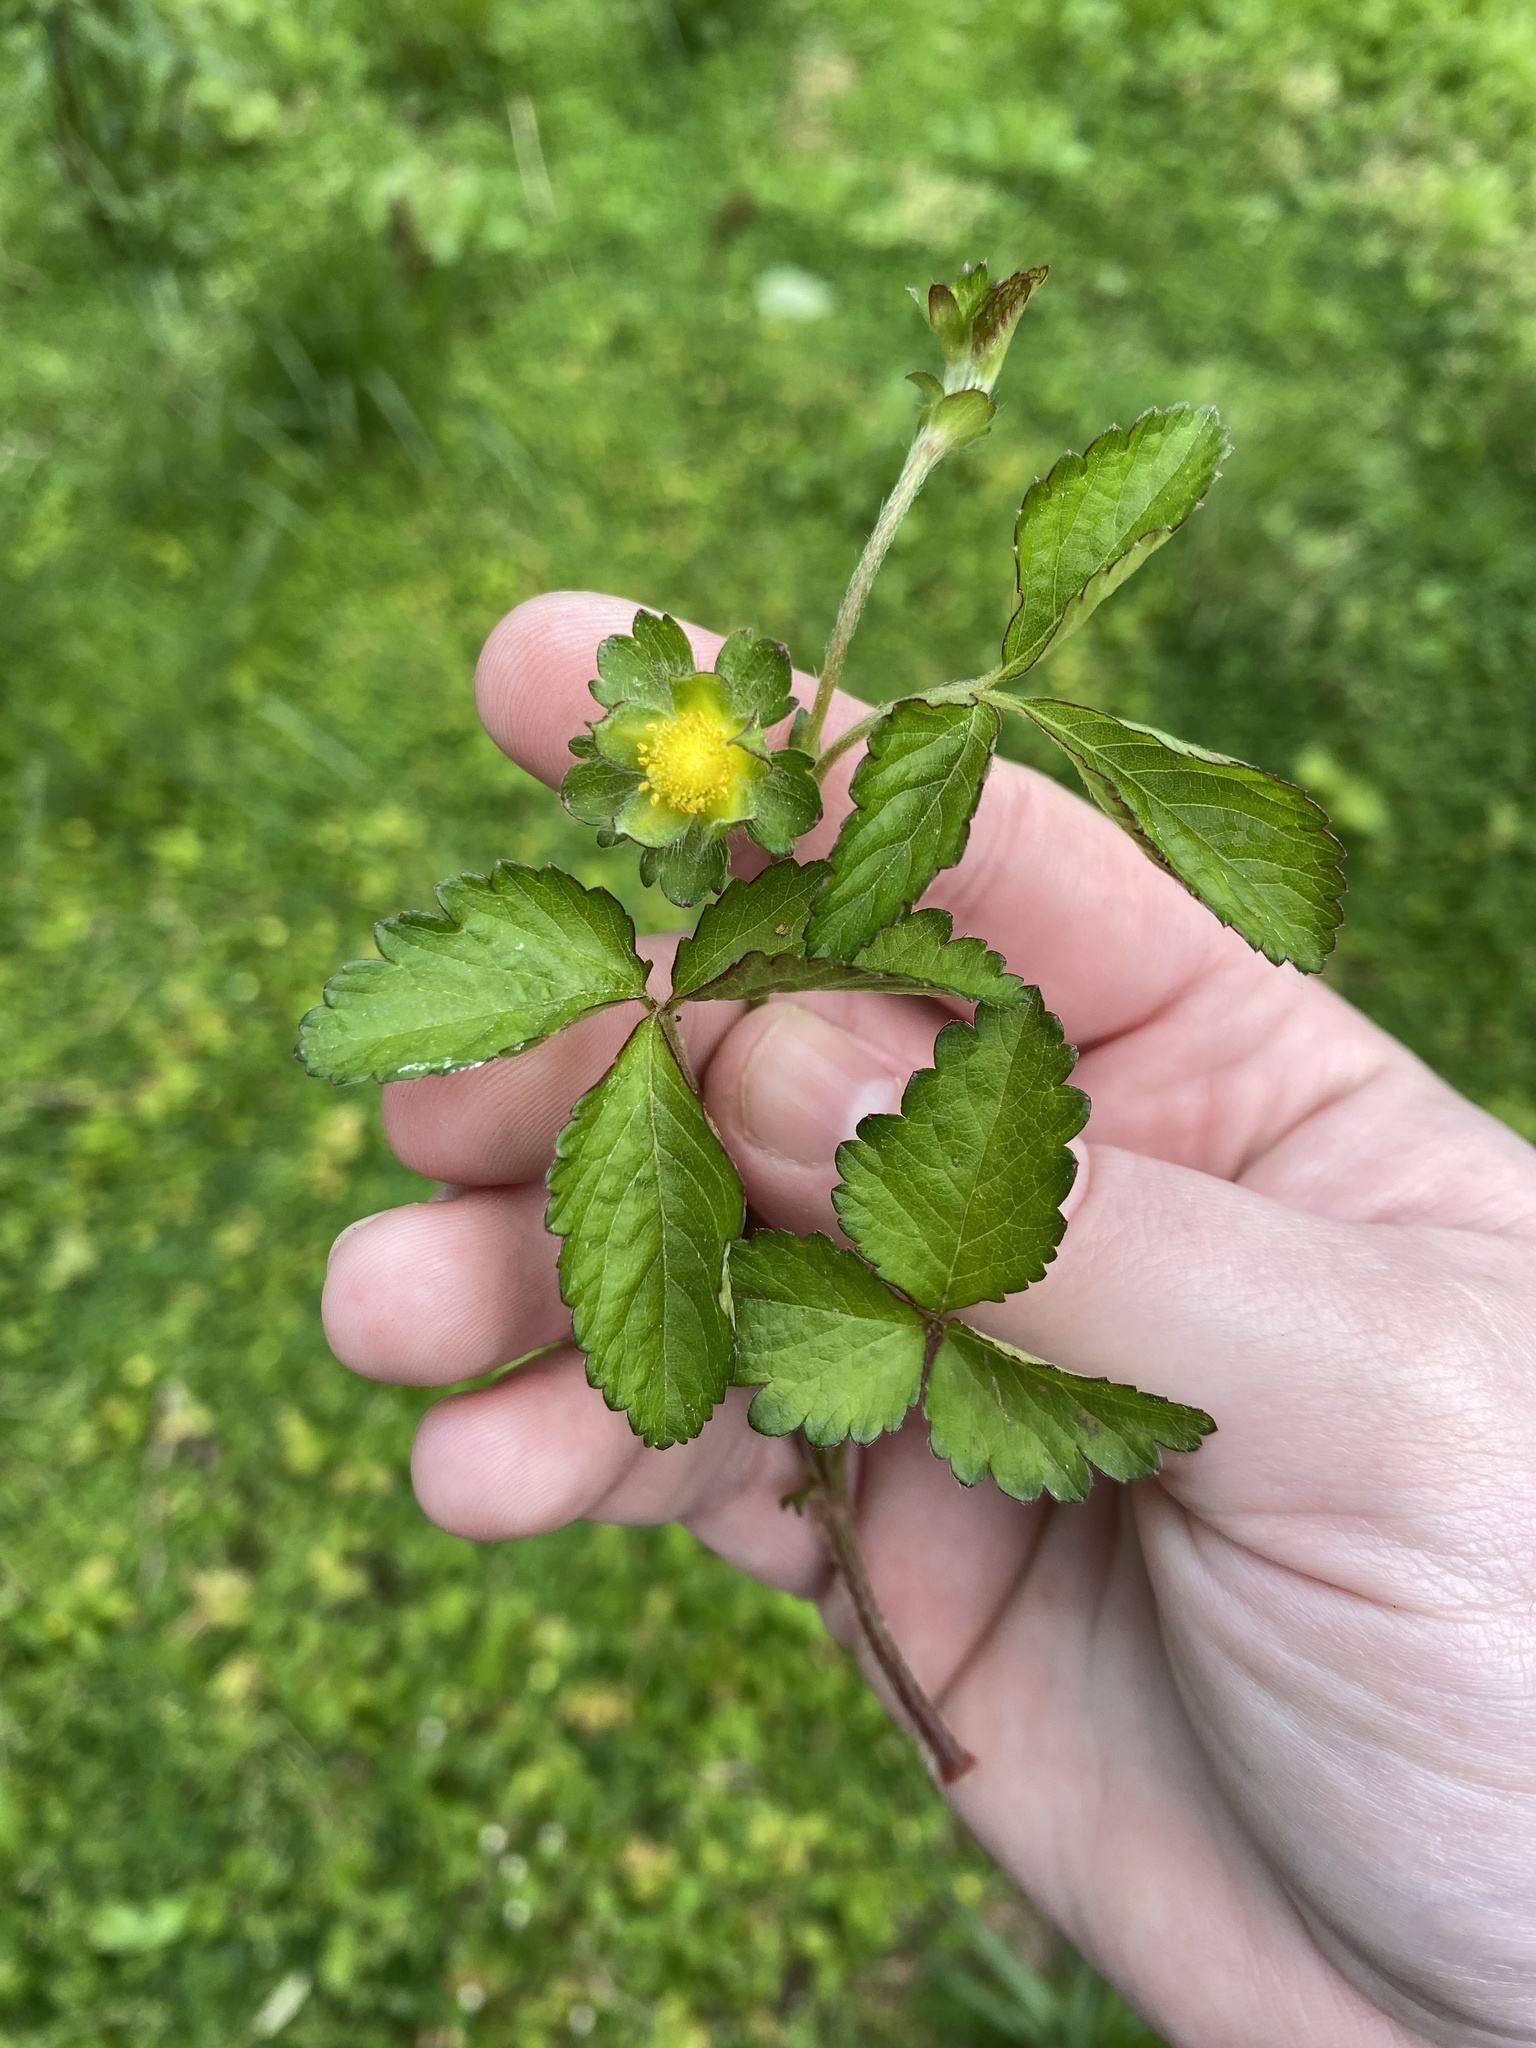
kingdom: Plantae
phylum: Tracheophyta
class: Magnoliopsida
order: Rosales
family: Rosaceae
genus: Potentilla
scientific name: Potentilla indica
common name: Yellow-flowered strawberry
